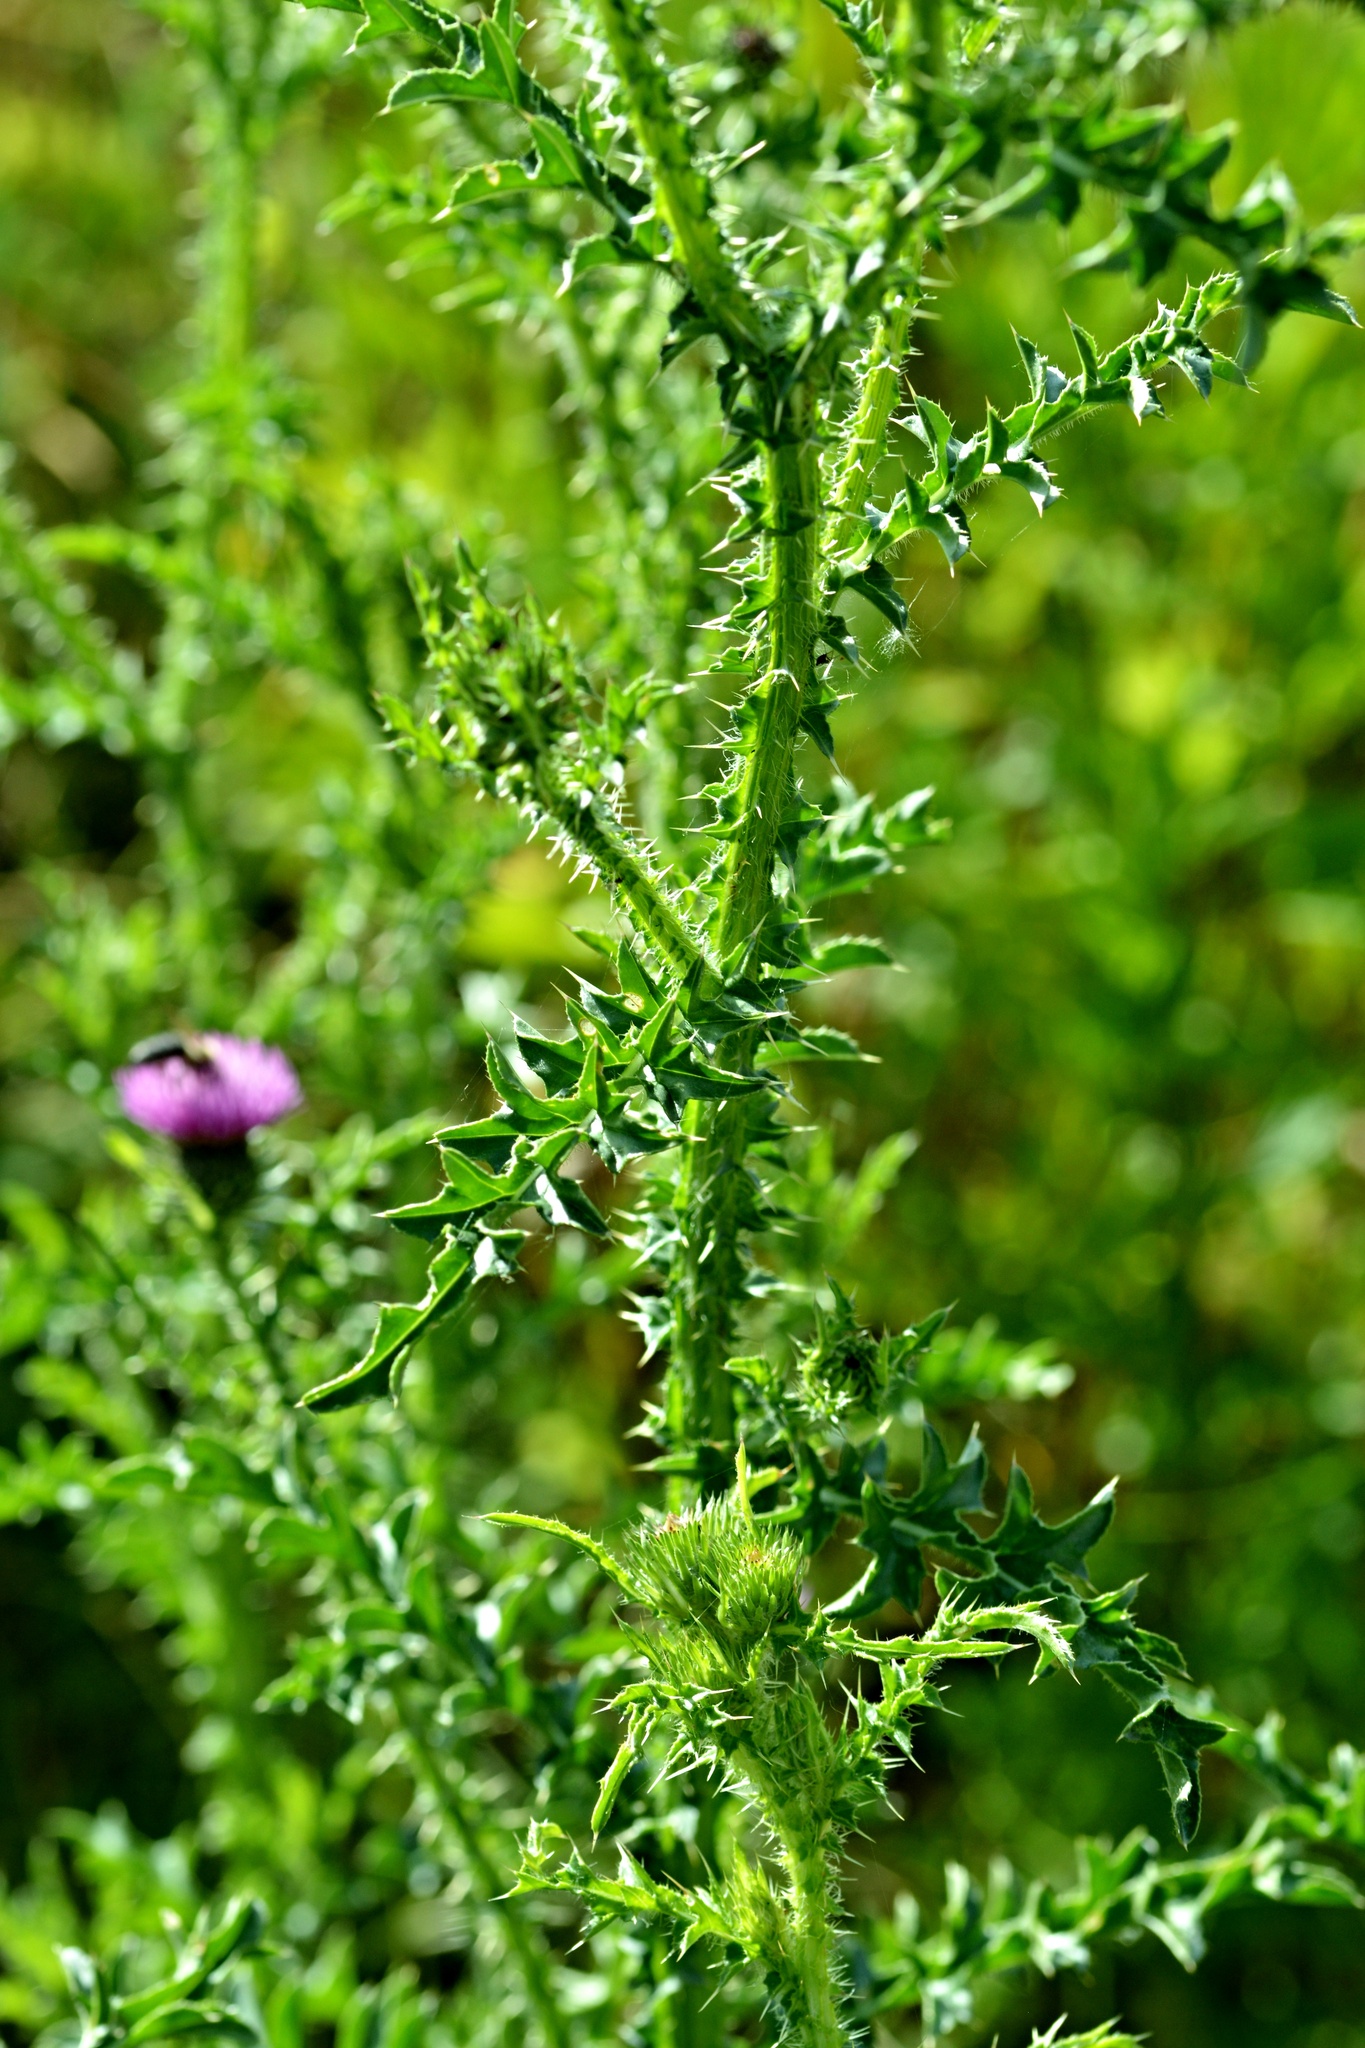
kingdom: Plantae
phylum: Tracheophyta
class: Magnoliopsida
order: Asterales
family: Asteraceae
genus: Carduus
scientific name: Carduus acanthoides
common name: Plumeless thistle
